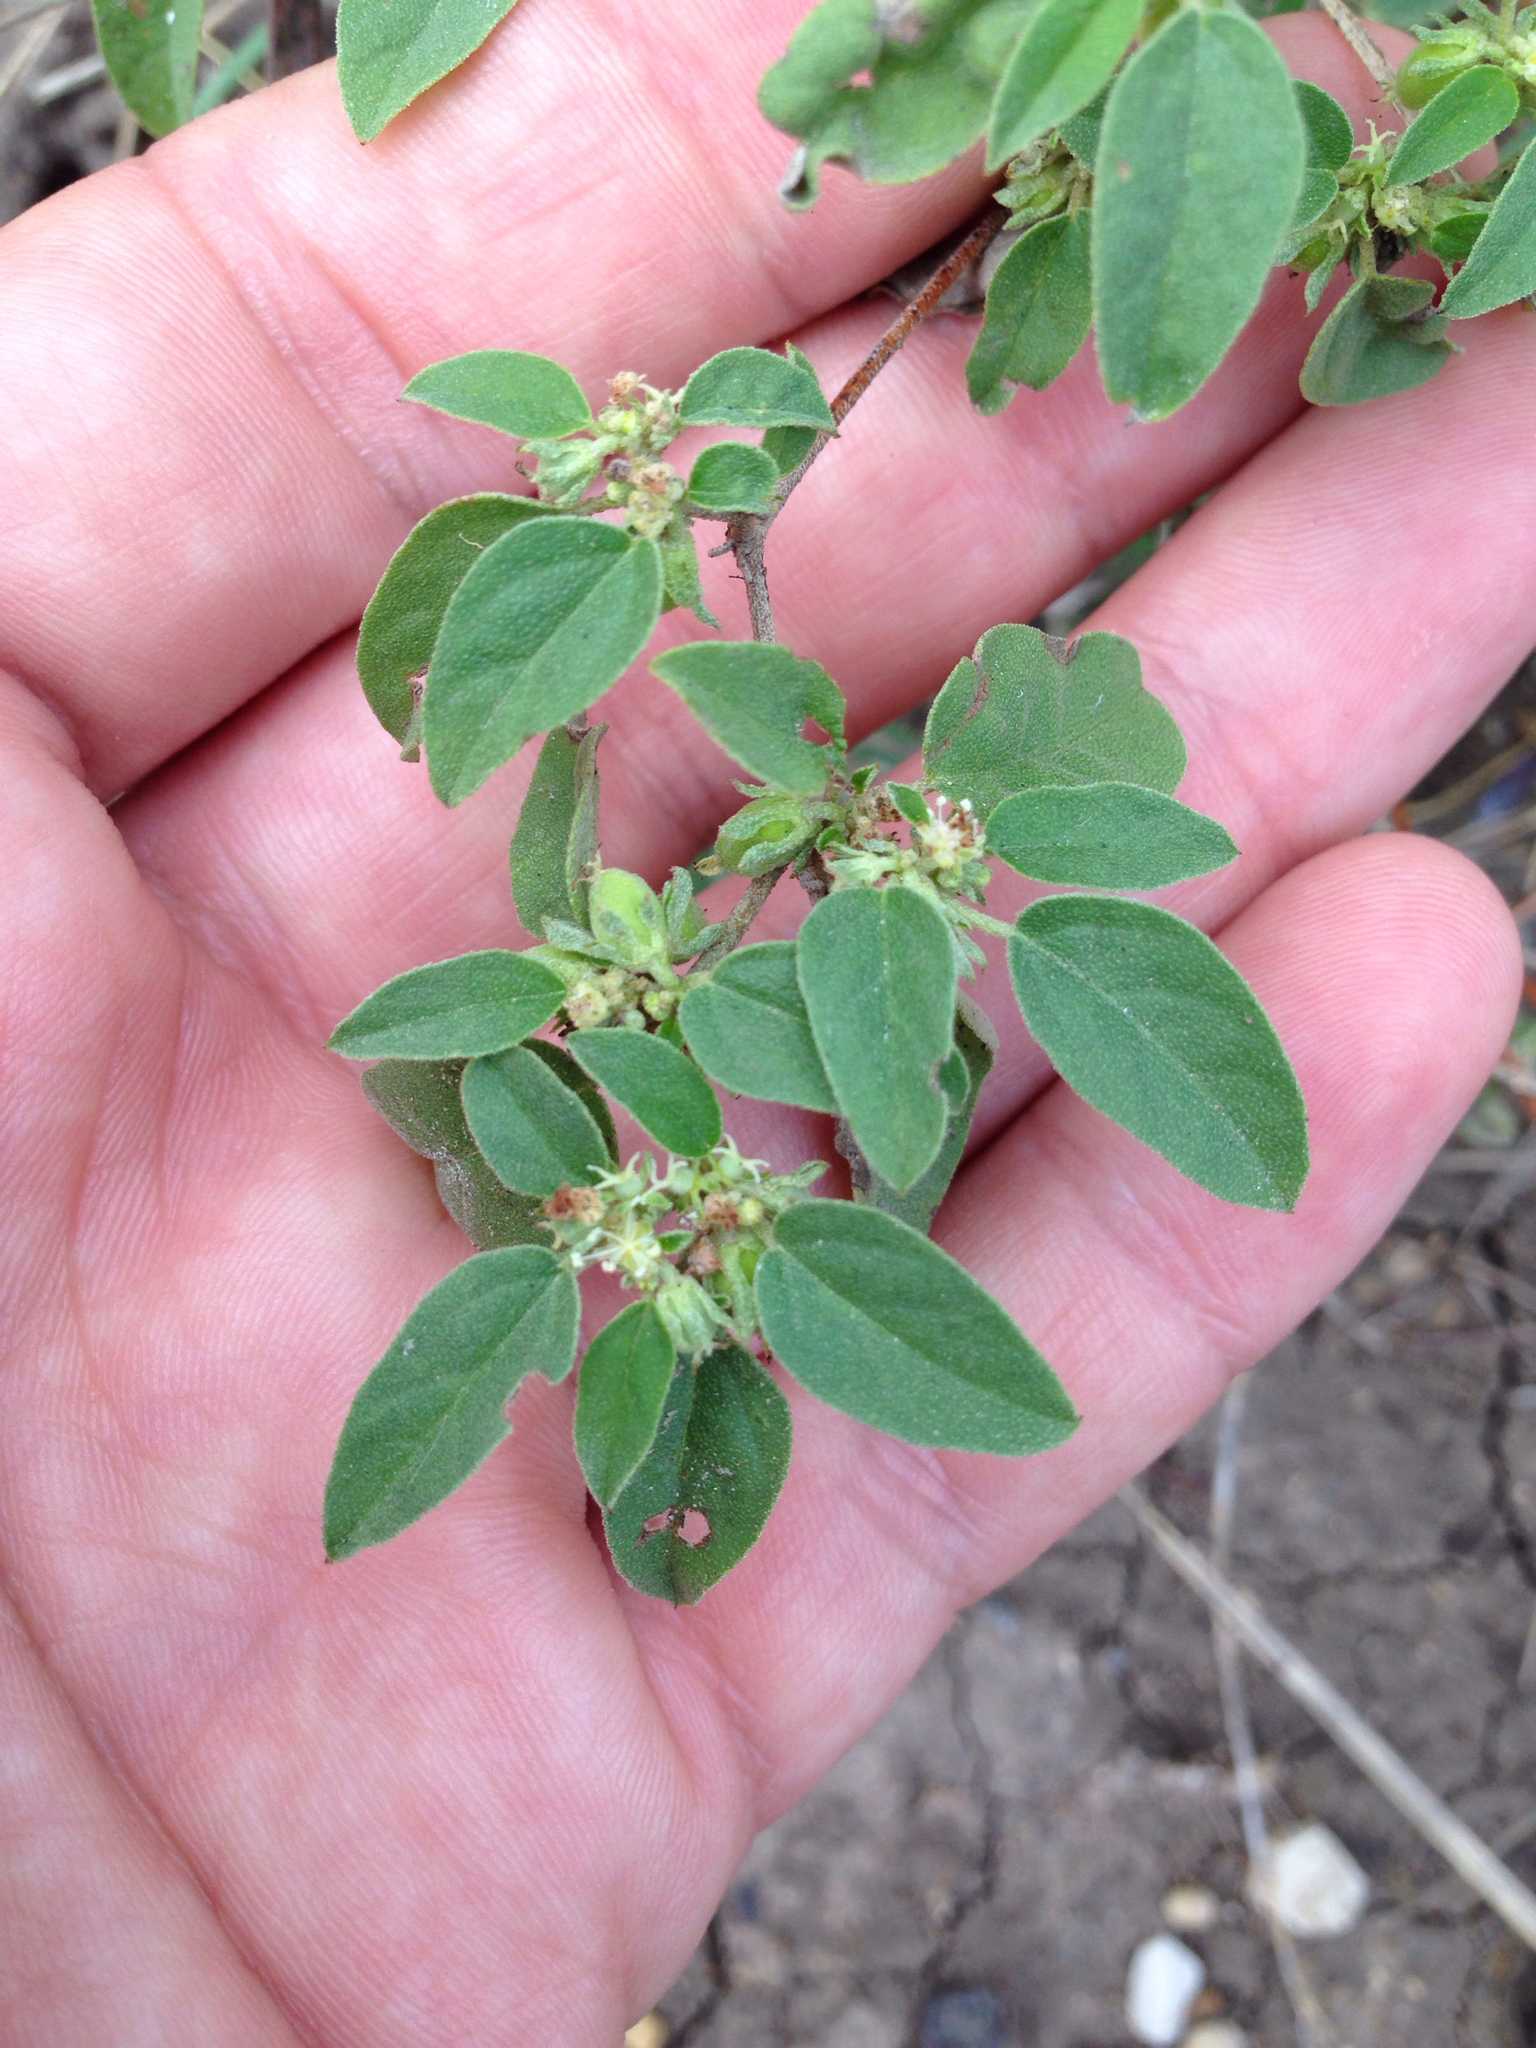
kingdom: Plantae
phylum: Tracheophyta
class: Magnoliopsida
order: Malpighiales
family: Euphorbiaceae
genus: Croton
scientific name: Croton monanthogynus
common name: One-seed croton
